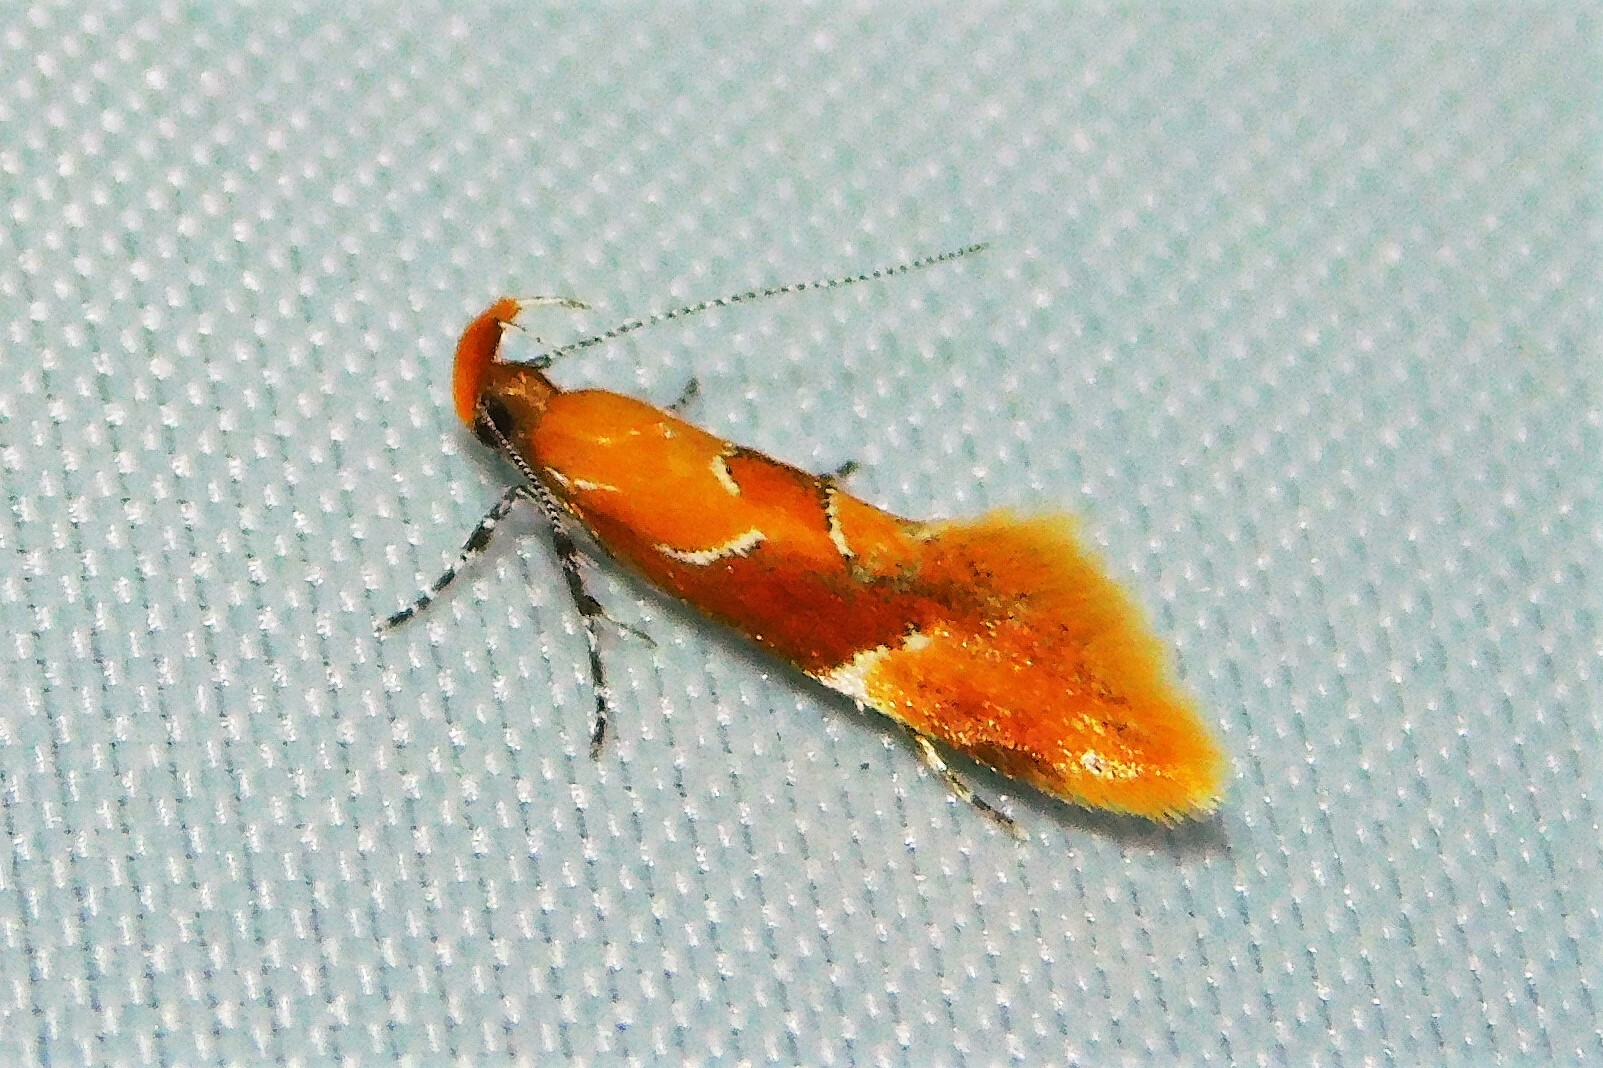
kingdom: Animalia
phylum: Arthropoda
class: Insecta
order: Lepidoptera
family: Oecophoridae
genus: Callima
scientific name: Callima formosella
